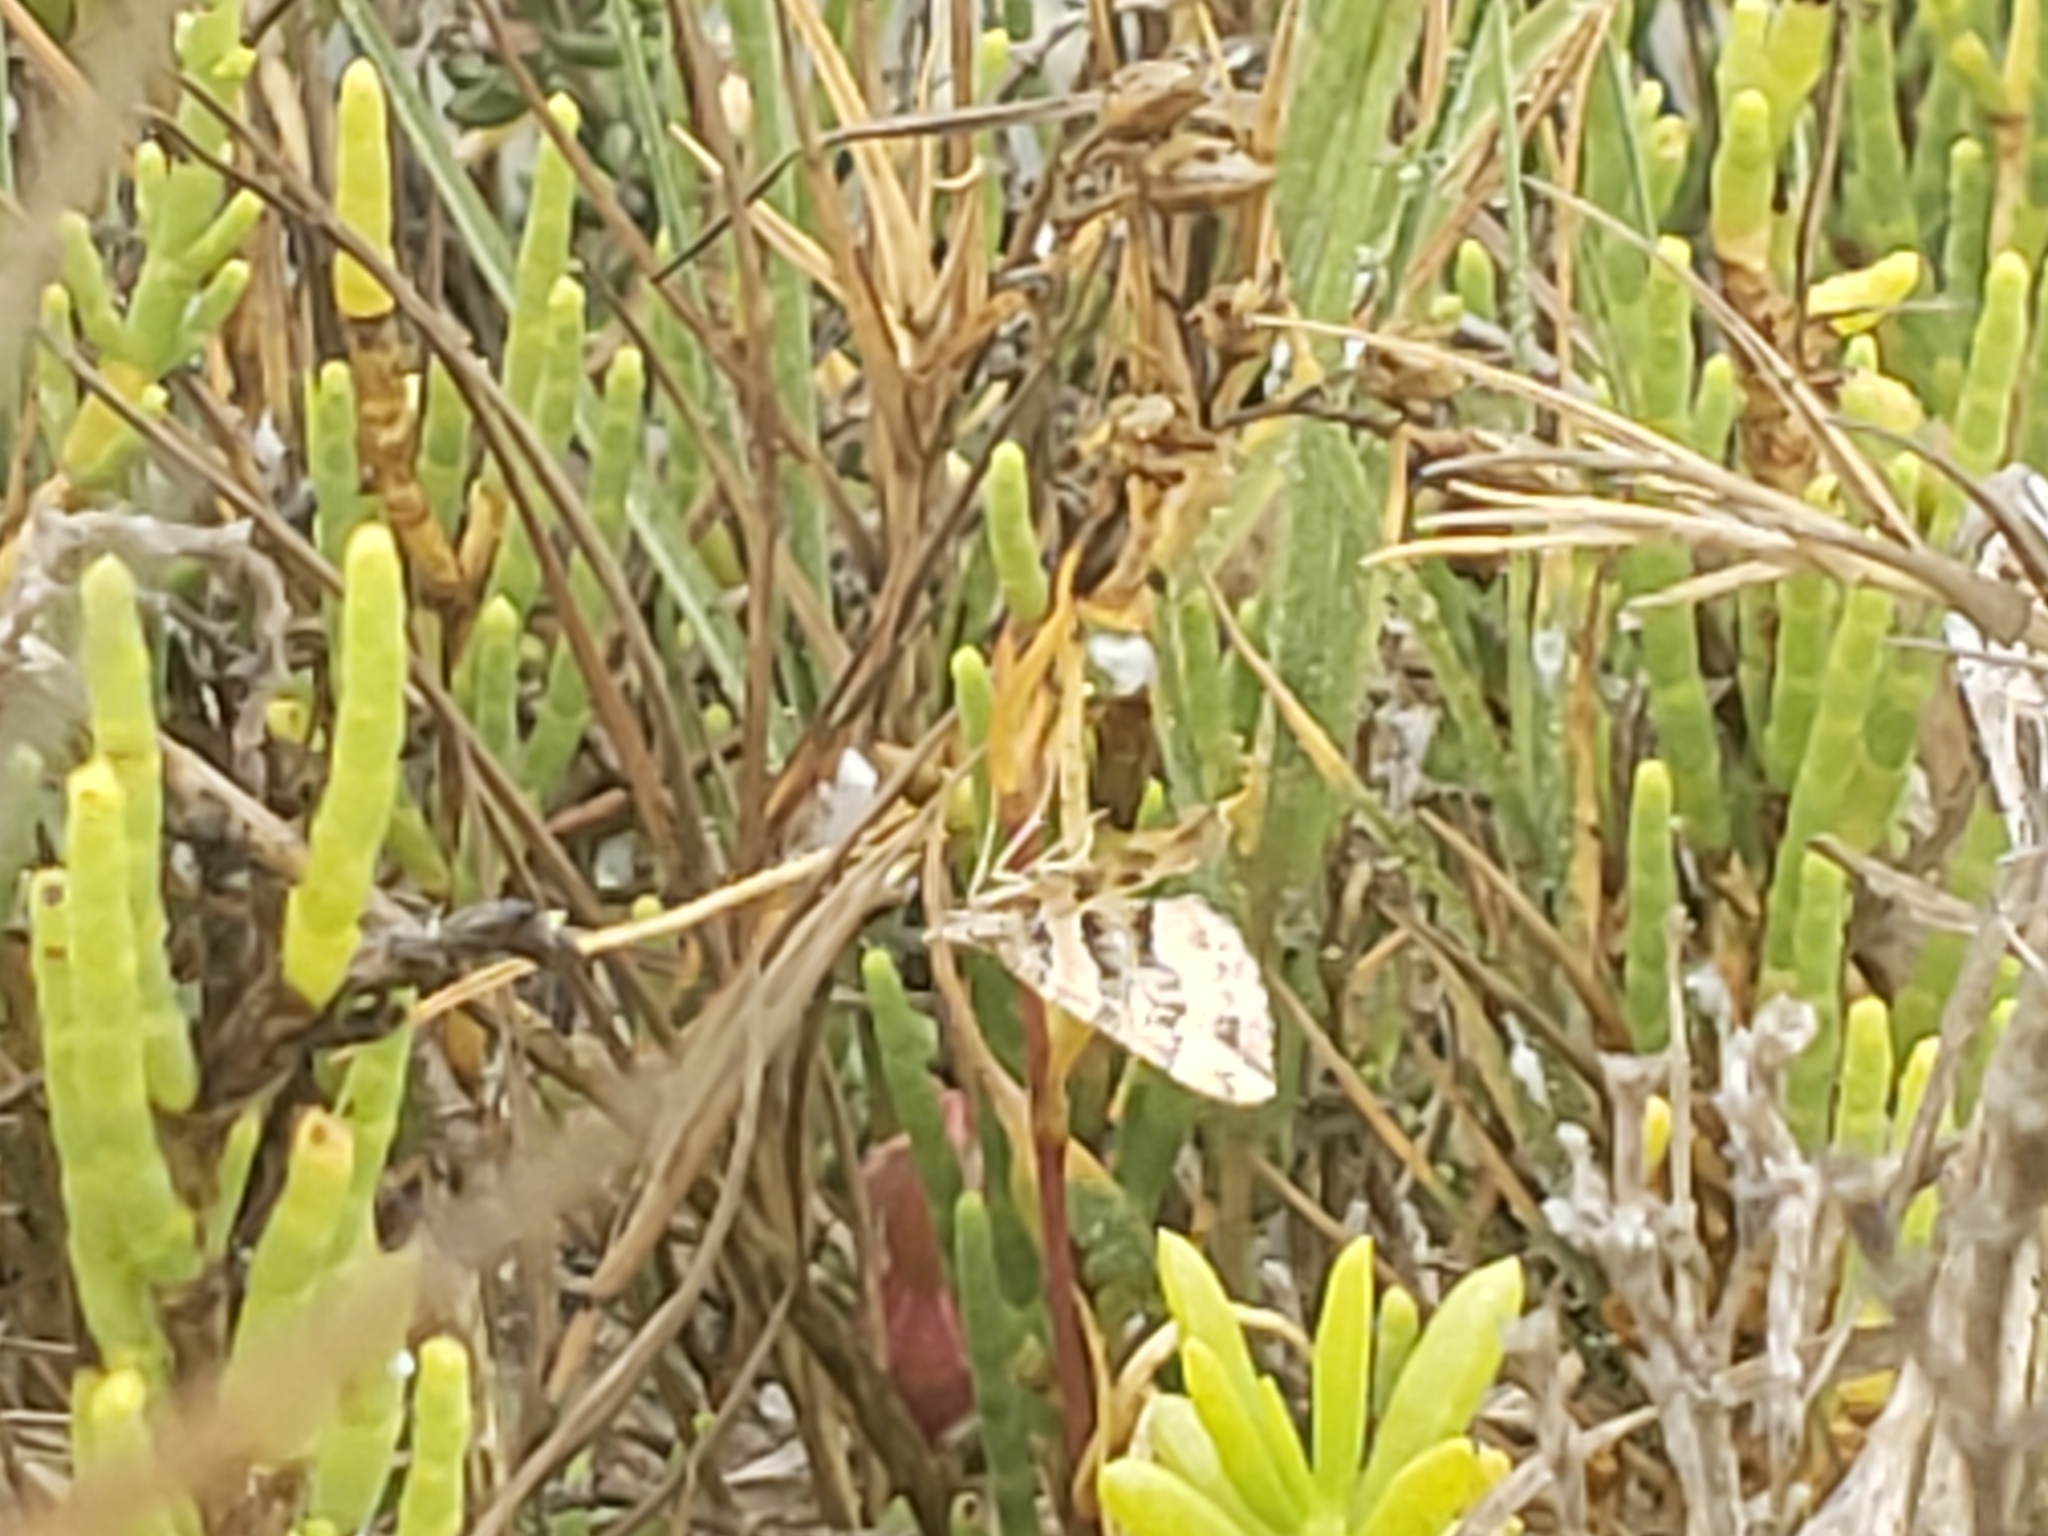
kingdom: Animalia
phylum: Arthropoda
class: Insecta
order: Lepidoptera
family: Geometridae
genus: Perizoma
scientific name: Perizoma epictata
